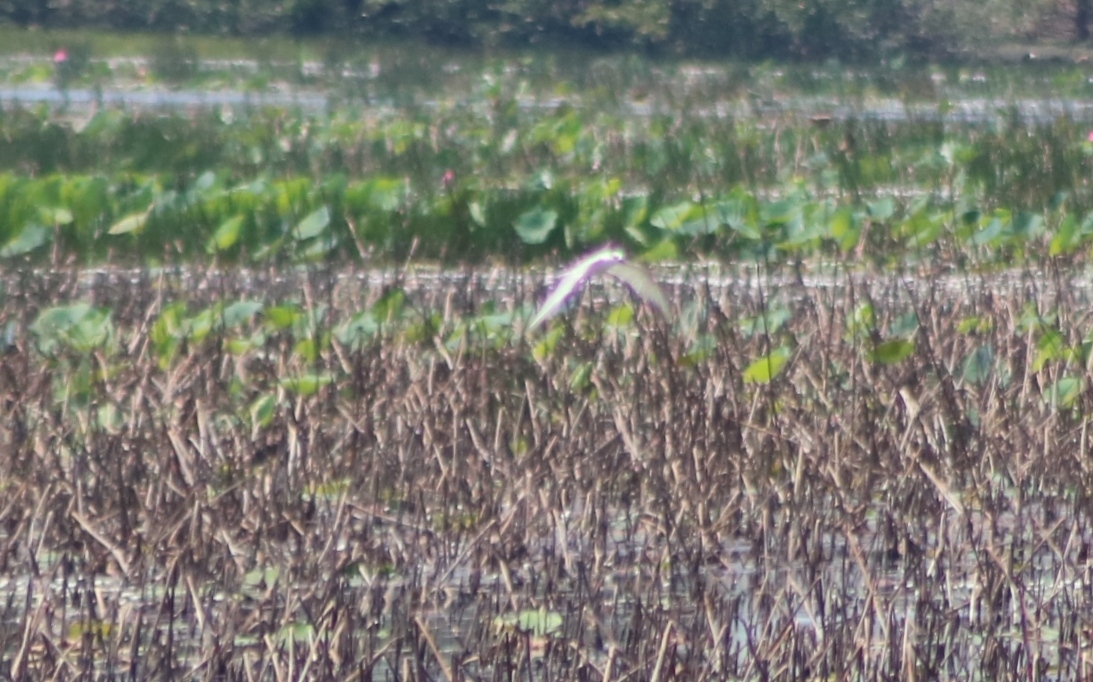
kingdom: Animalia
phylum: Chordata
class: Aves
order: Charadriiformes
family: Laridae
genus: Chlidonias
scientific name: Chlidonias hybrida
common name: Whiskered tern
